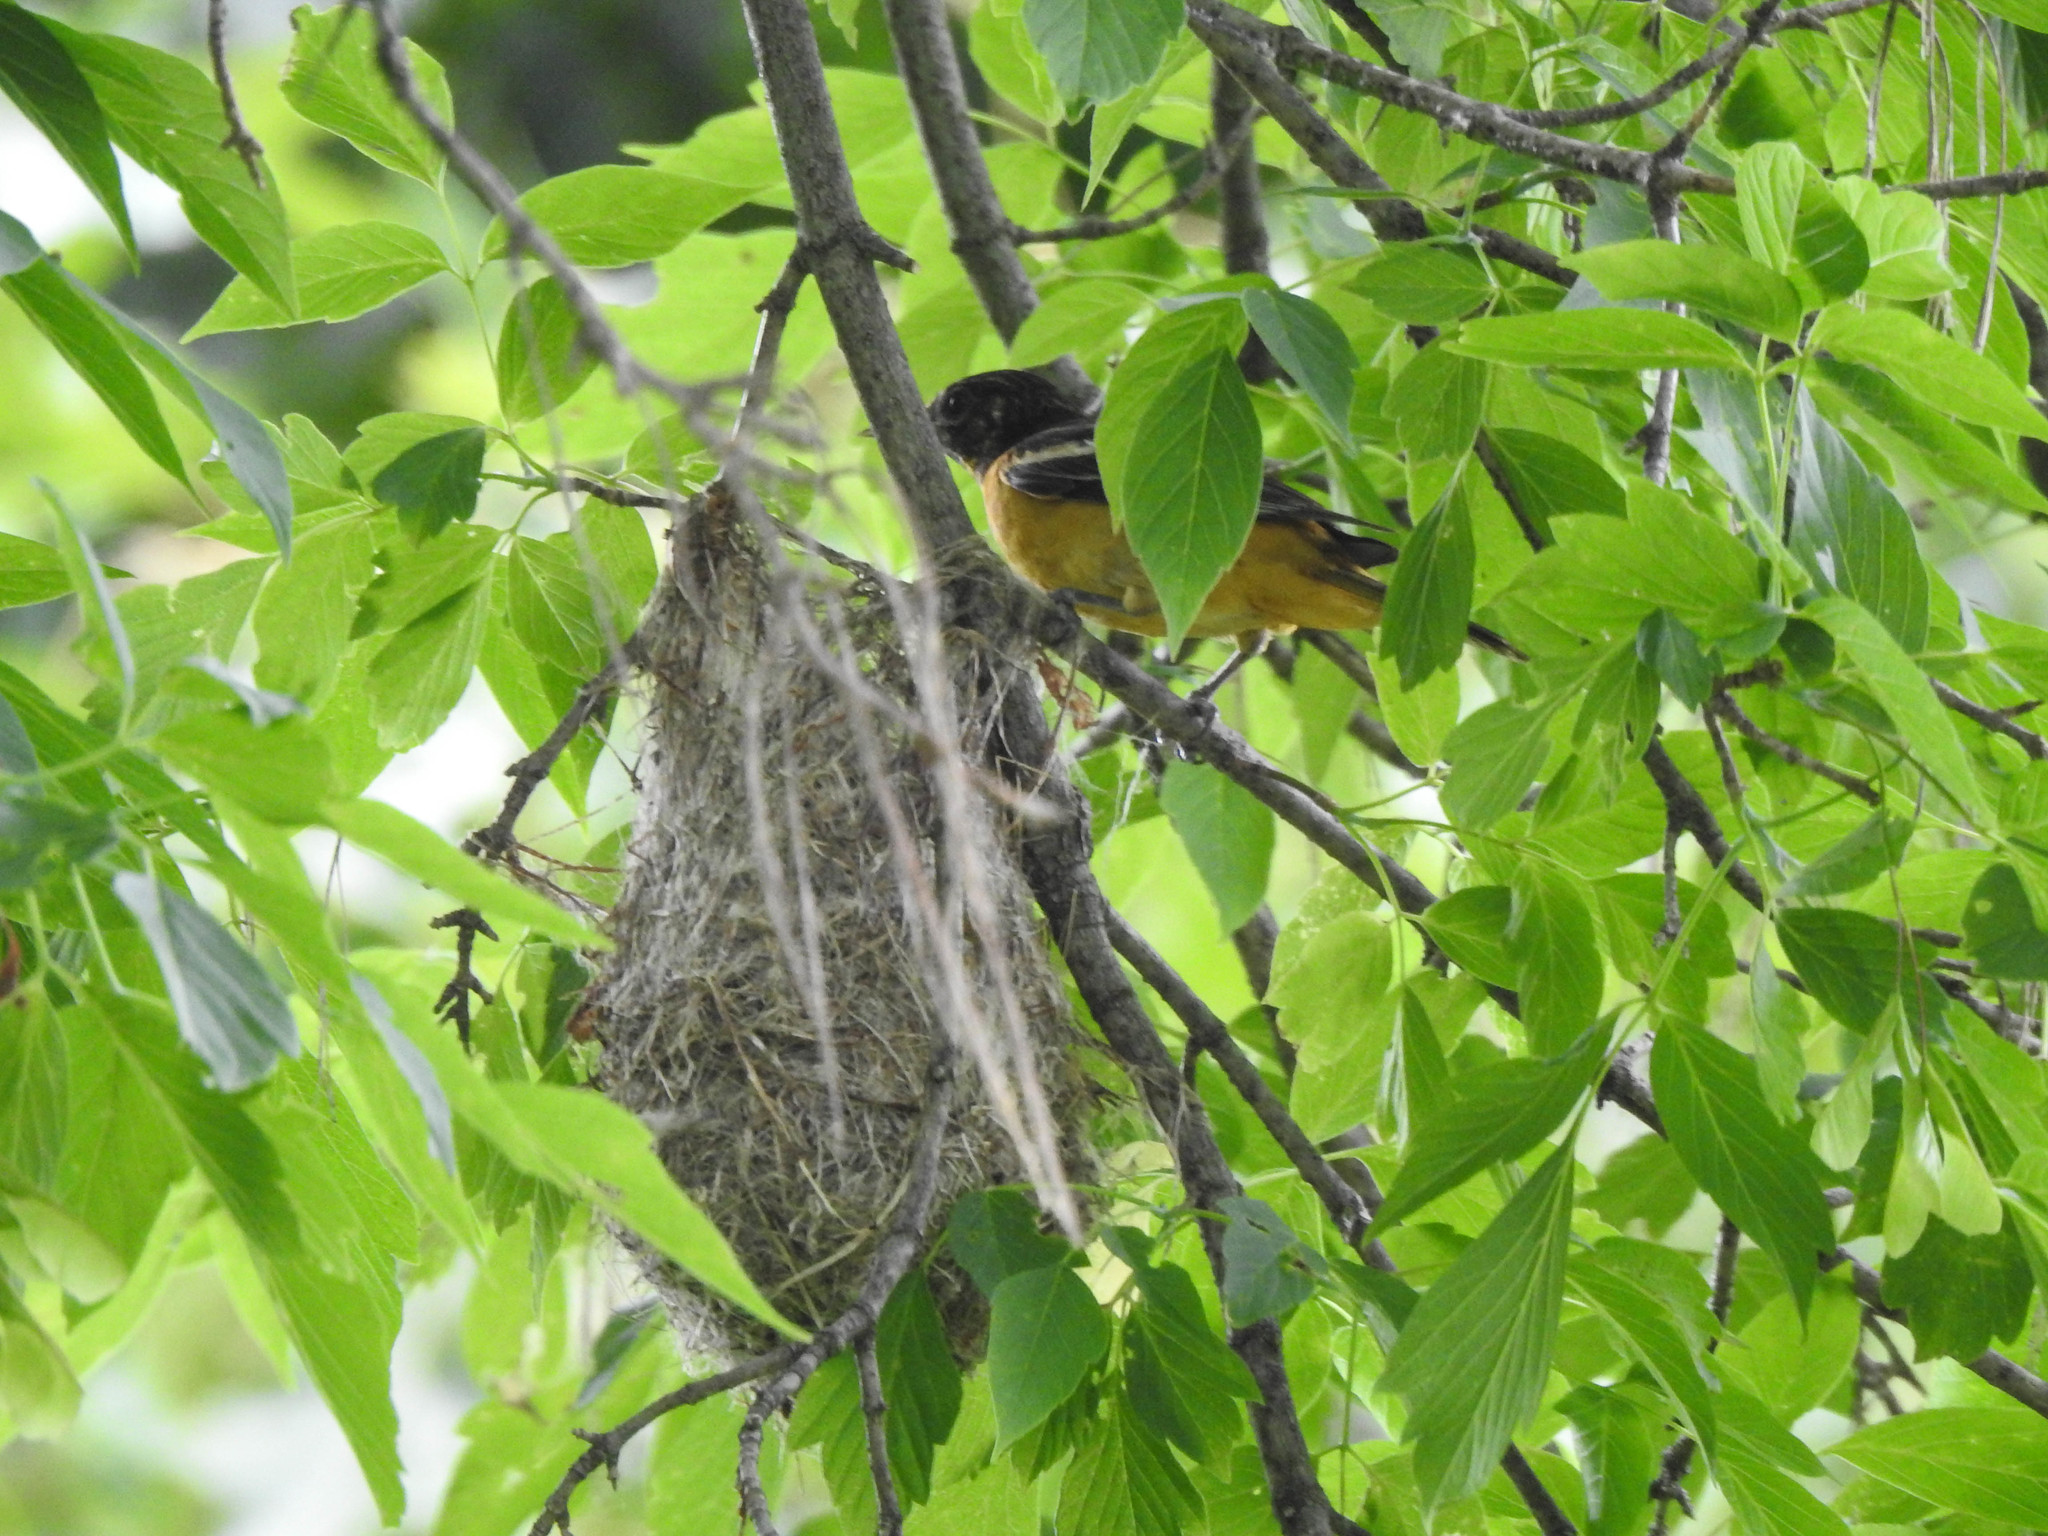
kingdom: Animalia
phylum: Chordata
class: Aves
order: Passeriformes
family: Icteridae
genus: Icterus
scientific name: Icterus galbula
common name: Baltimore oriole
